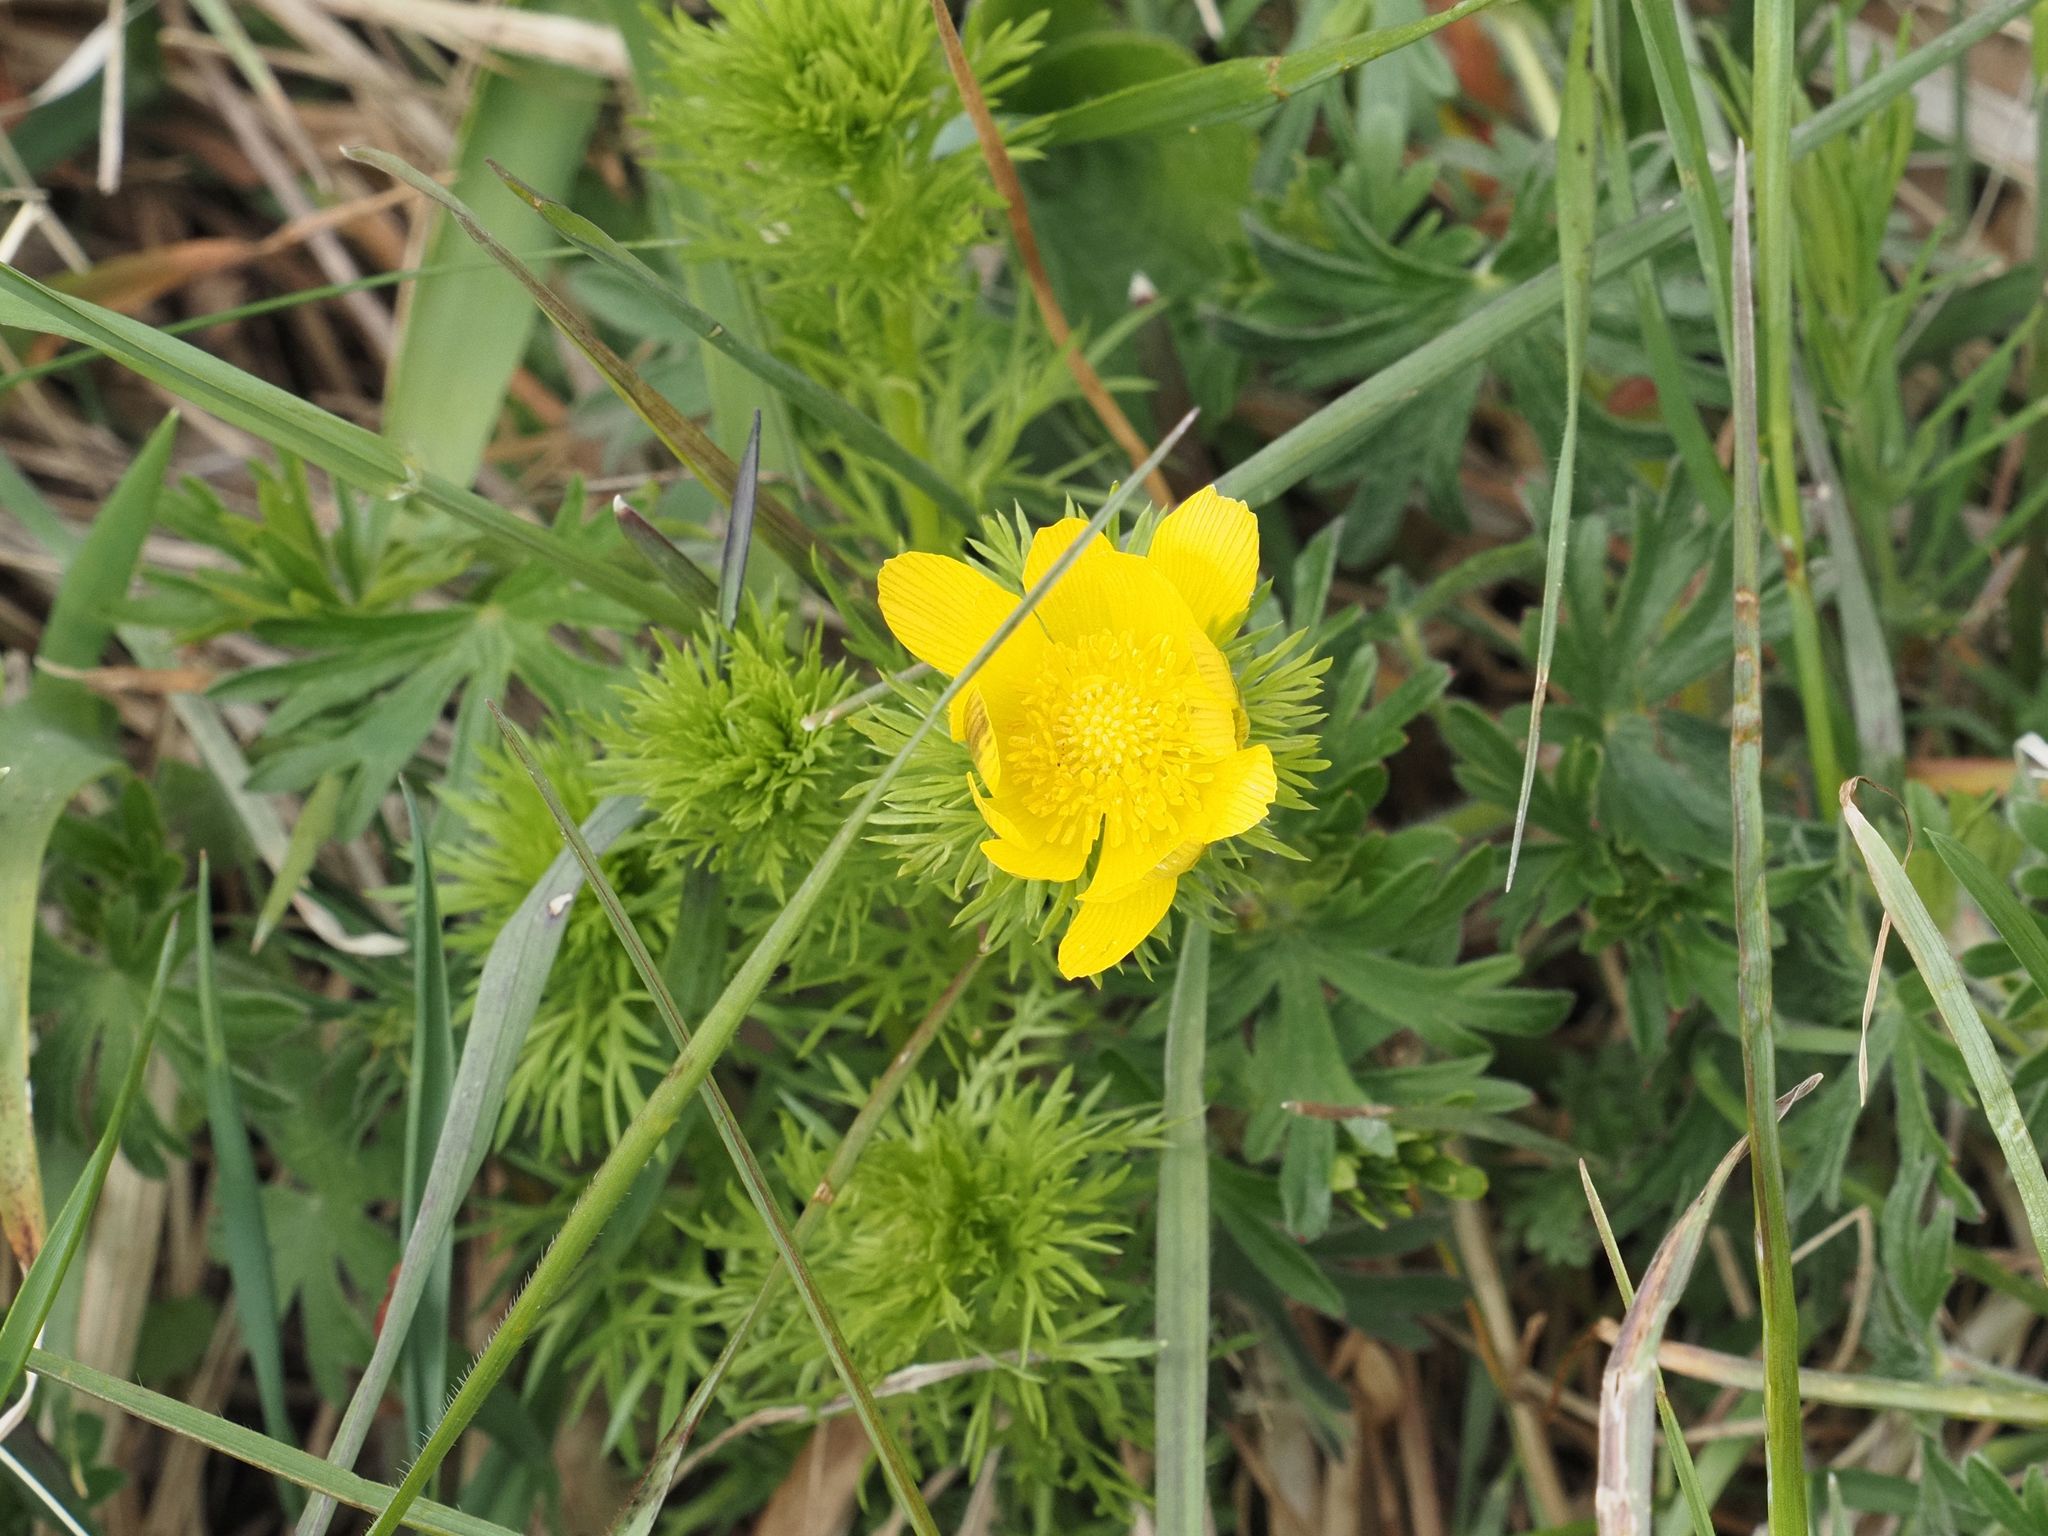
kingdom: Plantae
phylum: Tracheophyta
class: Magnoliopsida
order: Ranunculales
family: Ranunculaceae
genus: Adonis
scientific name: Adonis vernalis
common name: Yellow pheasants-eye
